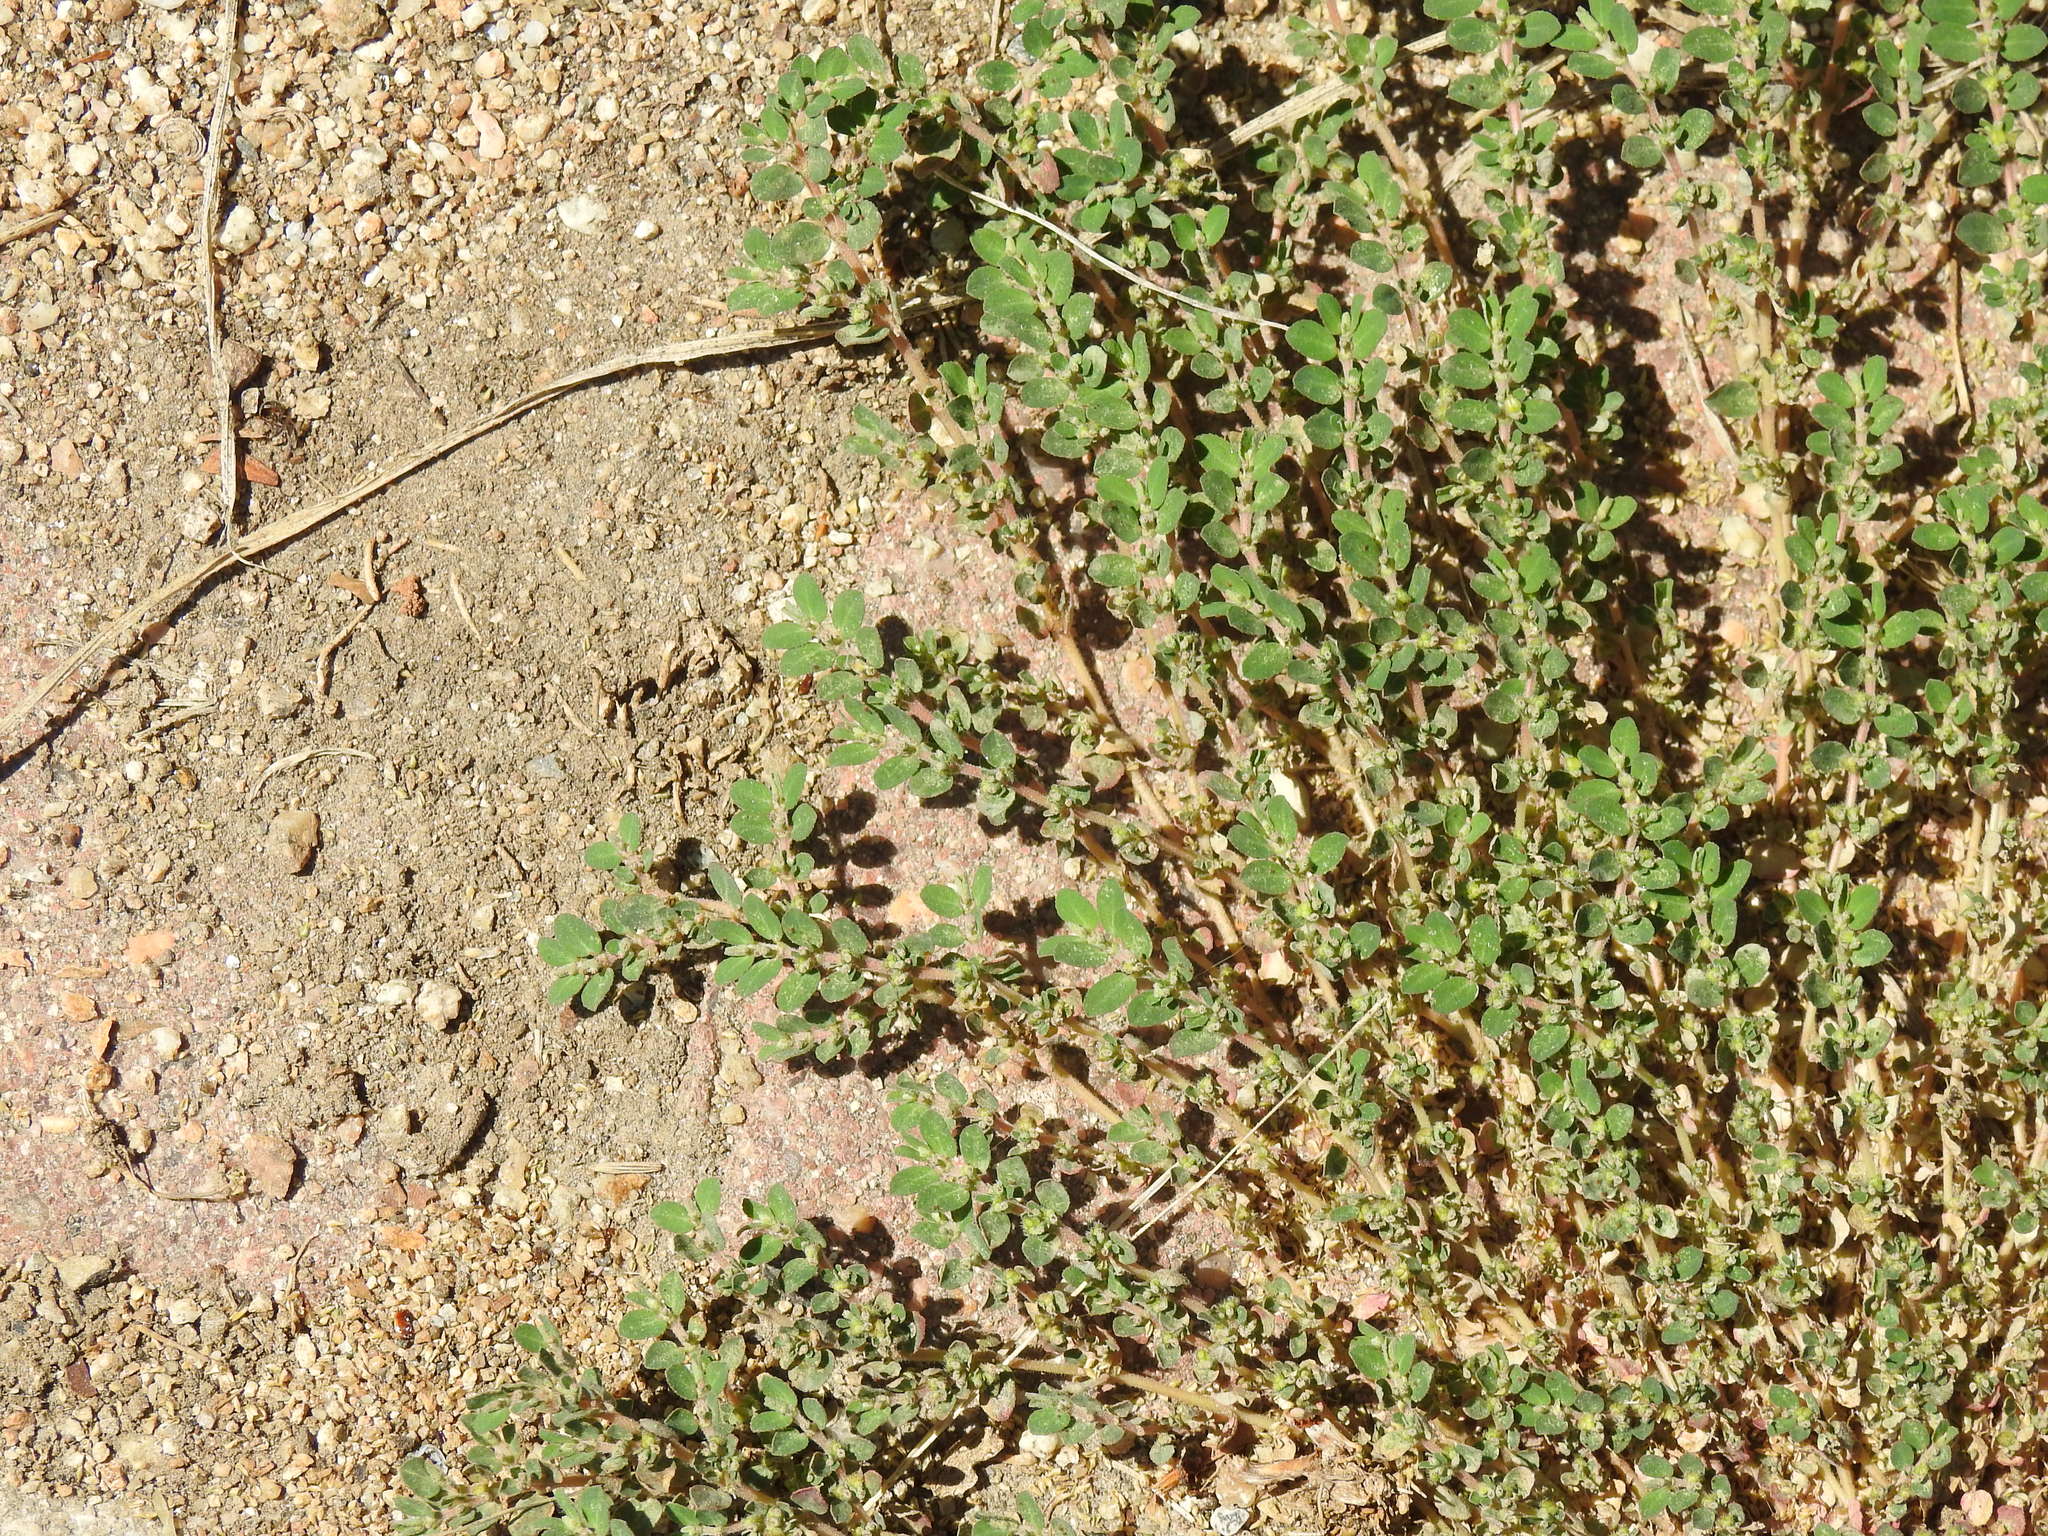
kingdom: Plantae
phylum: Tracheophyta
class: Magnoliopsida
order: Malpighiales
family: Euphorbiaceae
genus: Euphorbia
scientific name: Euphorbia prostrata
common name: Prostrate sandmat
